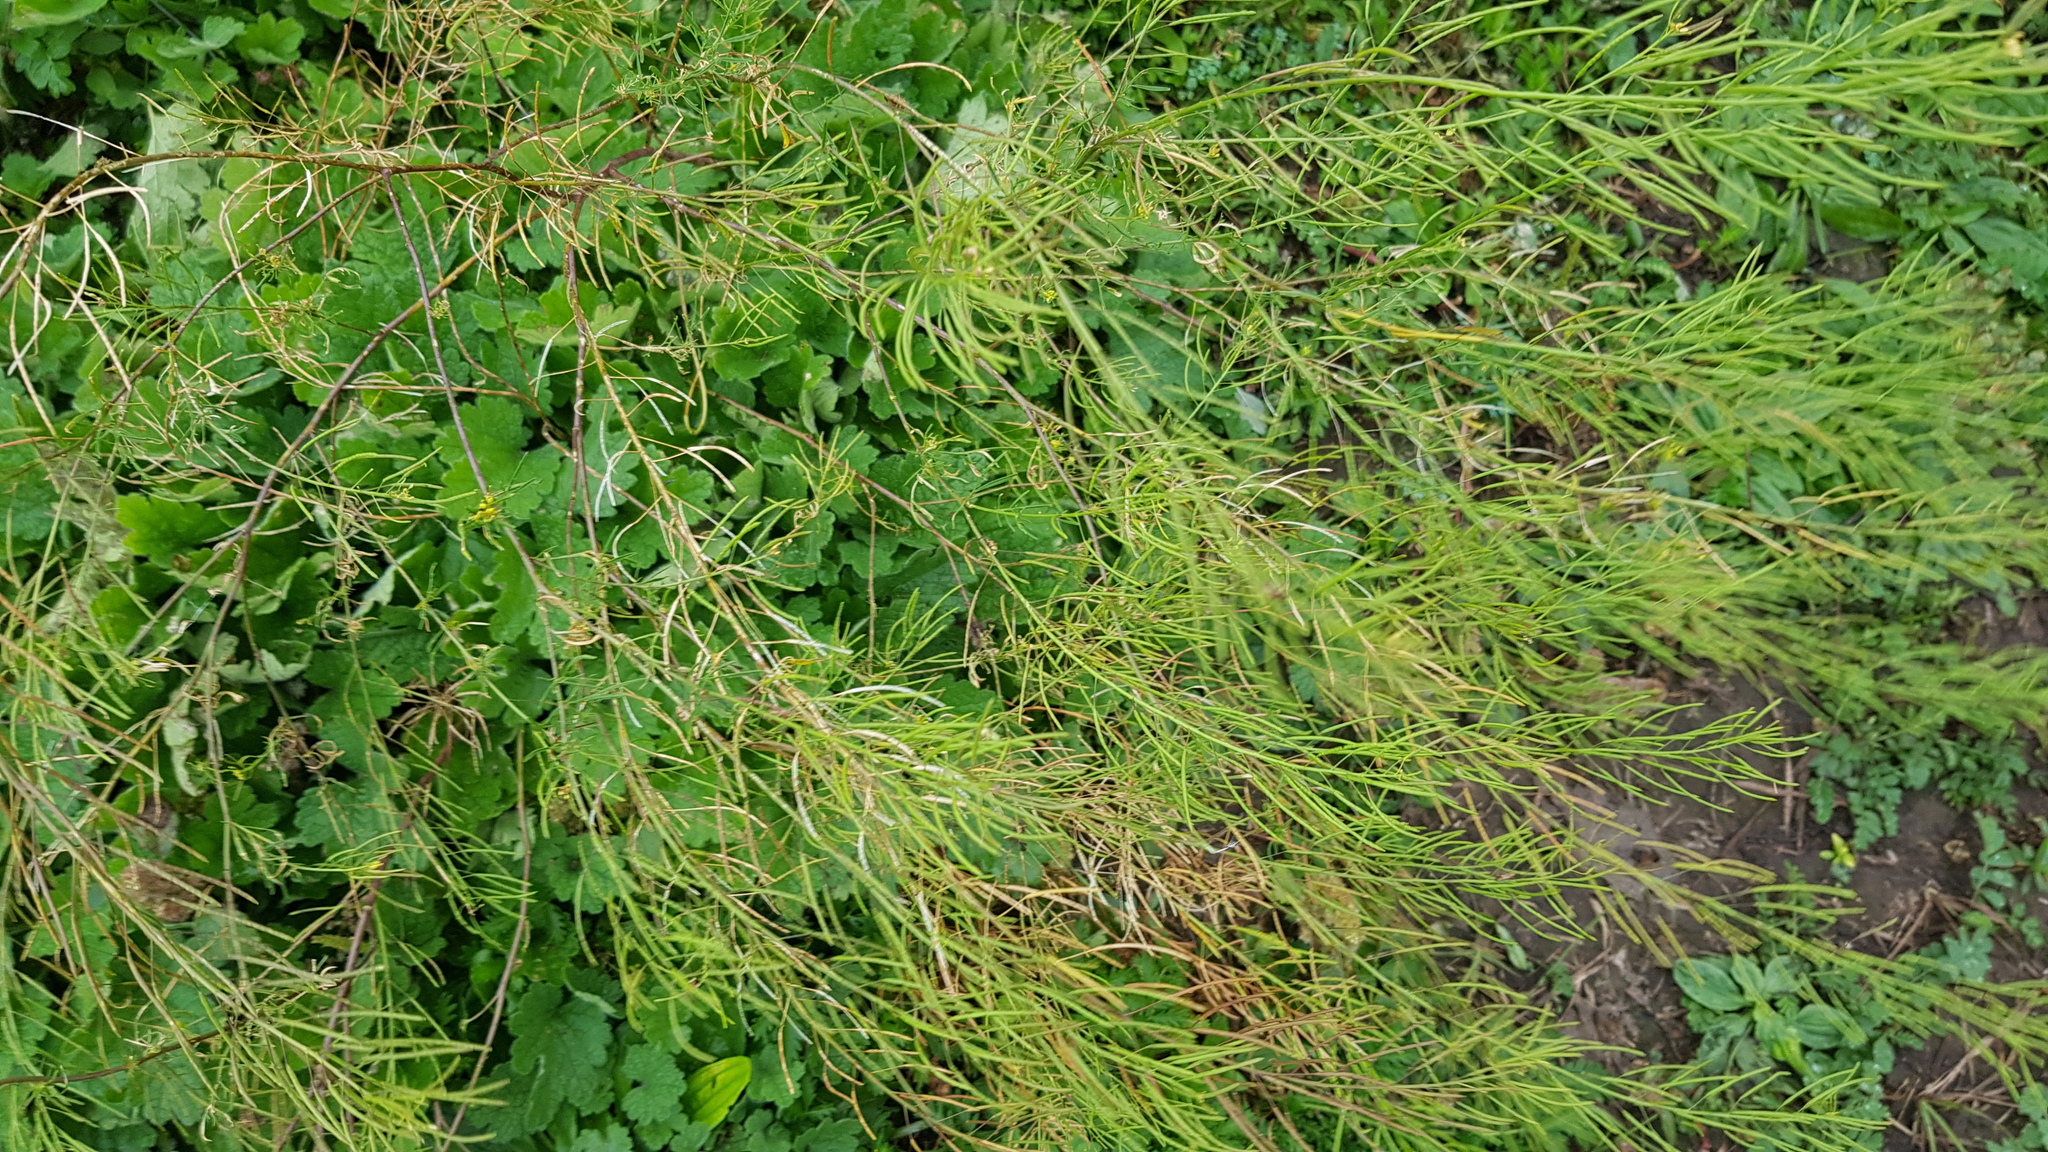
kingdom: Plantae
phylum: Tracheophyta
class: Magnoliopsida
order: Brassicales
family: Brassicaceae
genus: Descurainia
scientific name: Descurainia sophia
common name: Flixweed
